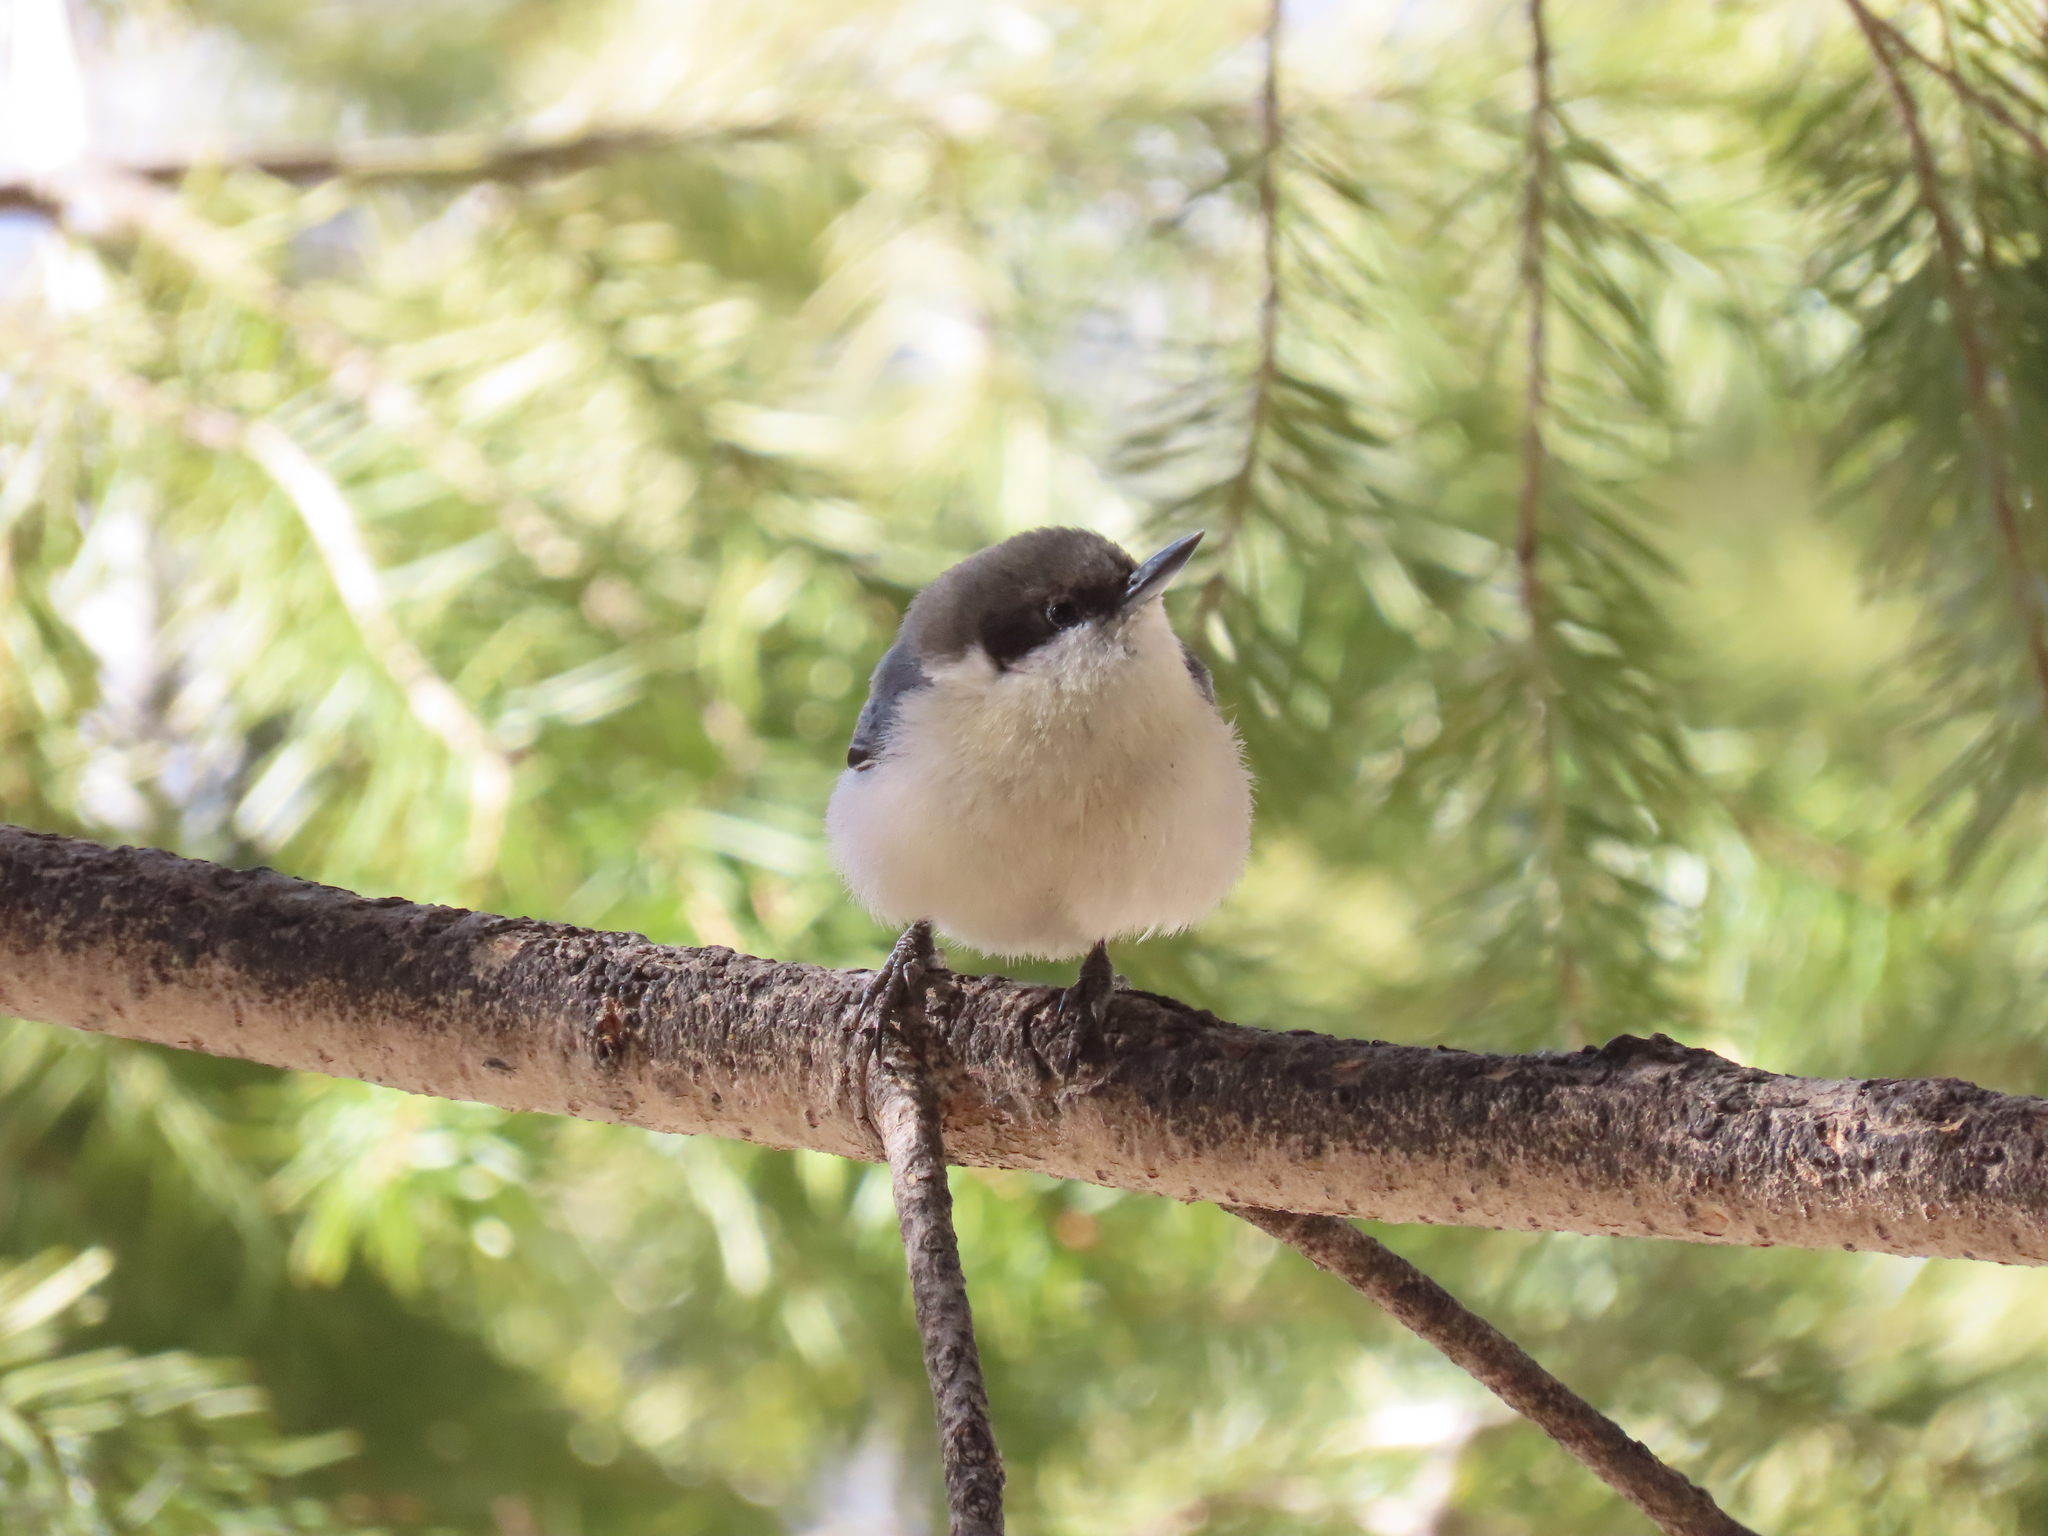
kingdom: Animalia
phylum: Chordata
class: Aves
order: Passeriformes
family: Sittidae
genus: Sitta
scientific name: Sitta pygmaea
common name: Pygmy nuthatch
